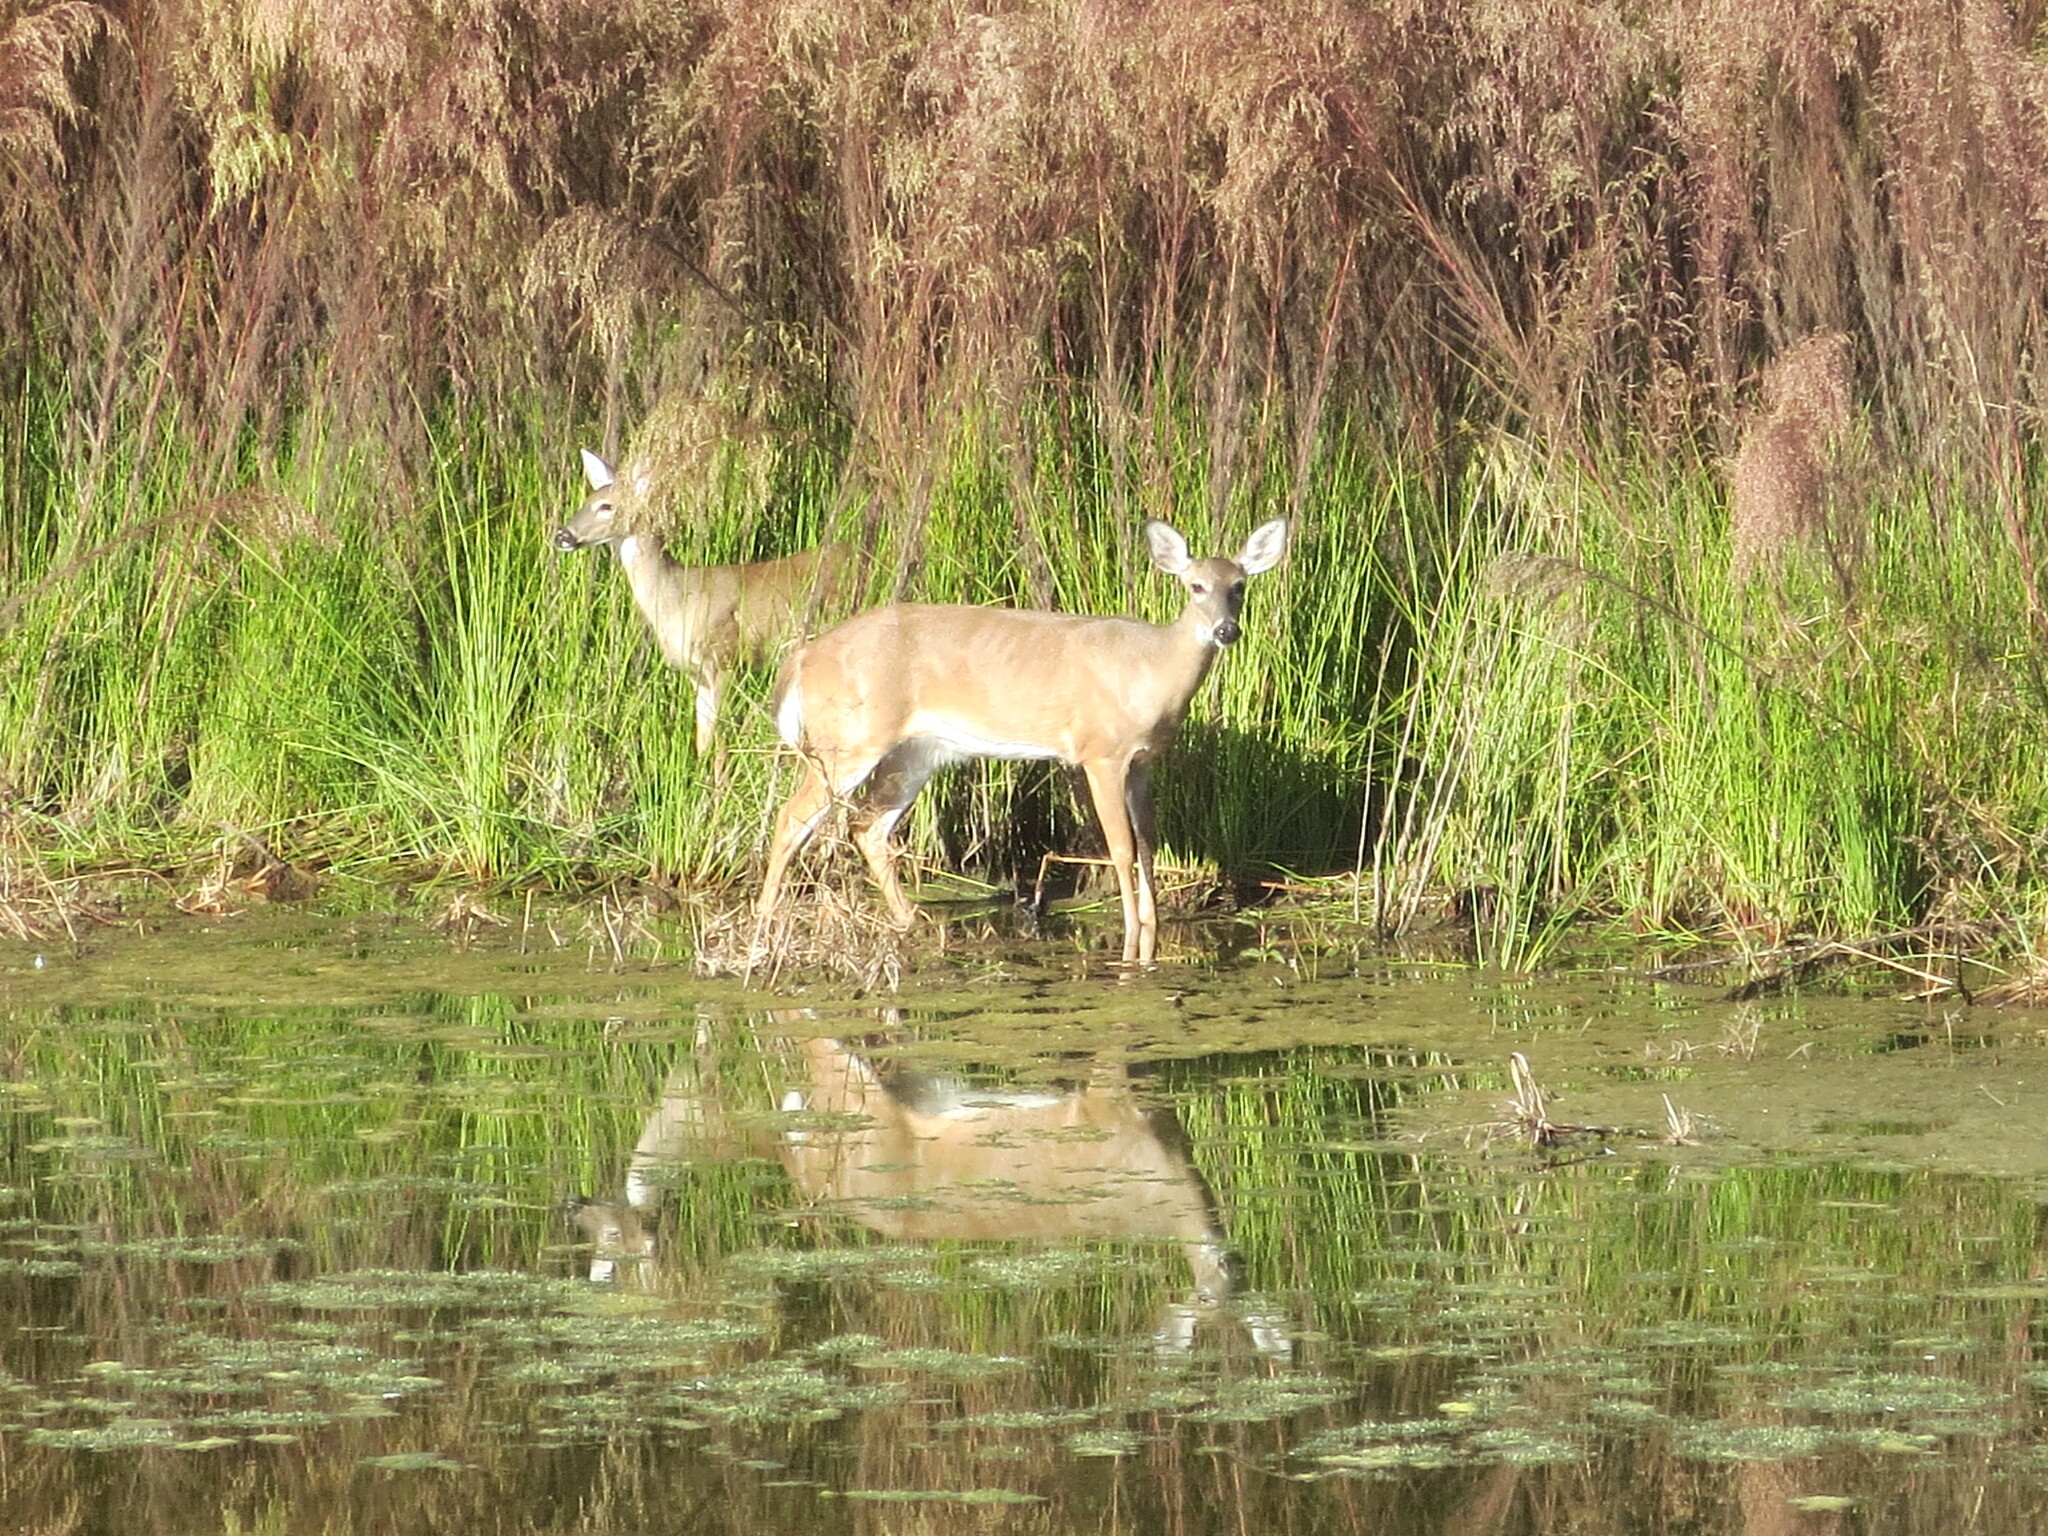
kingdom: Animalia
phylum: Chordata
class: Mammalia
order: Artiodactyla
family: Cervidae
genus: Odocoileus
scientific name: Odocoileus virginianus
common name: White-tailed deer
